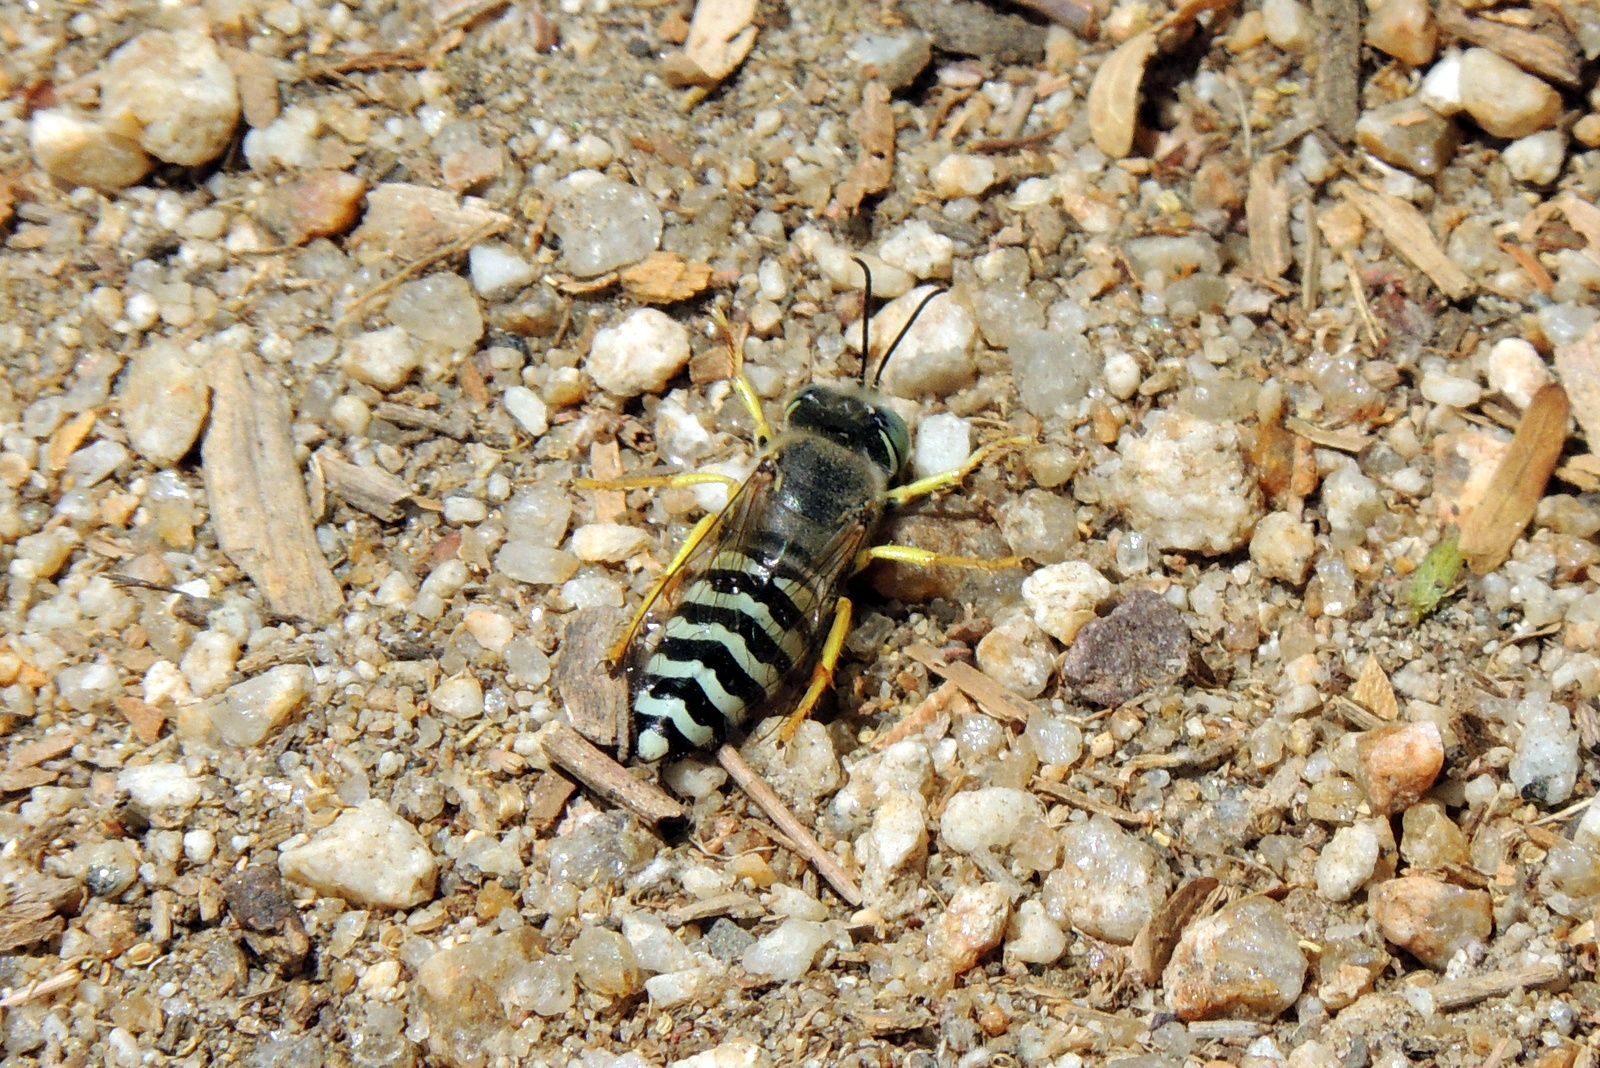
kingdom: Animalia
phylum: Arthropoda
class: Insecta
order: Hymenoptera
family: Crabronidae
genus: Bembix
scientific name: Bembix americana
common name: American sand wasp
